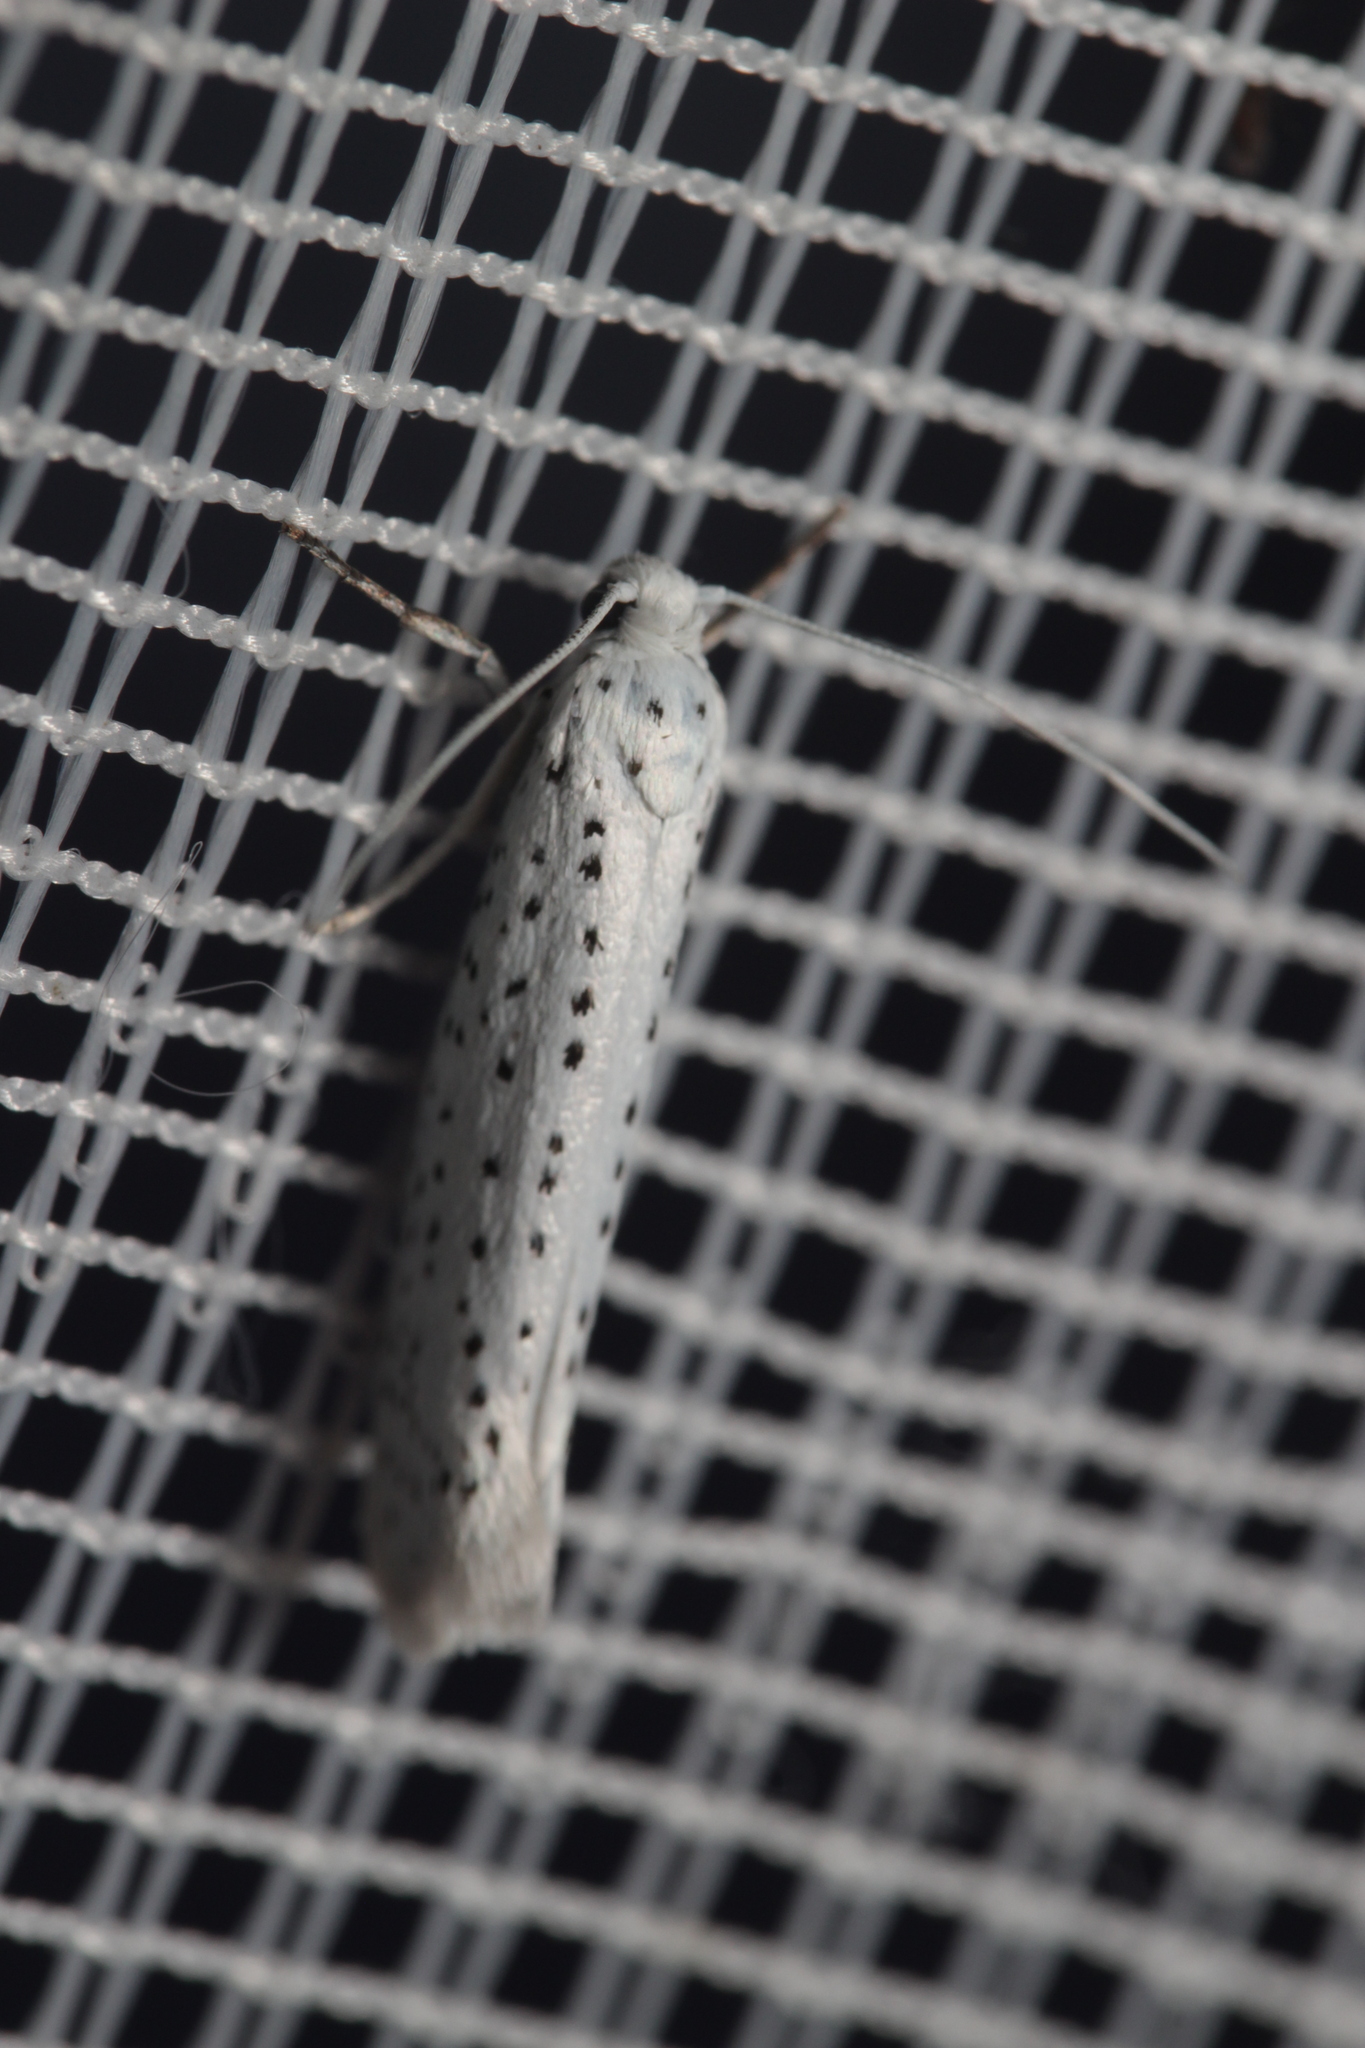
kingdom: Animalia
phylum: Arthropoda
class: Insecta
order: Lepidoptera
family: Yponomeutidae
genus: Yponomeuta
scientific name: Yponomeuta evonymella
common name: Bird-cherry ermine
